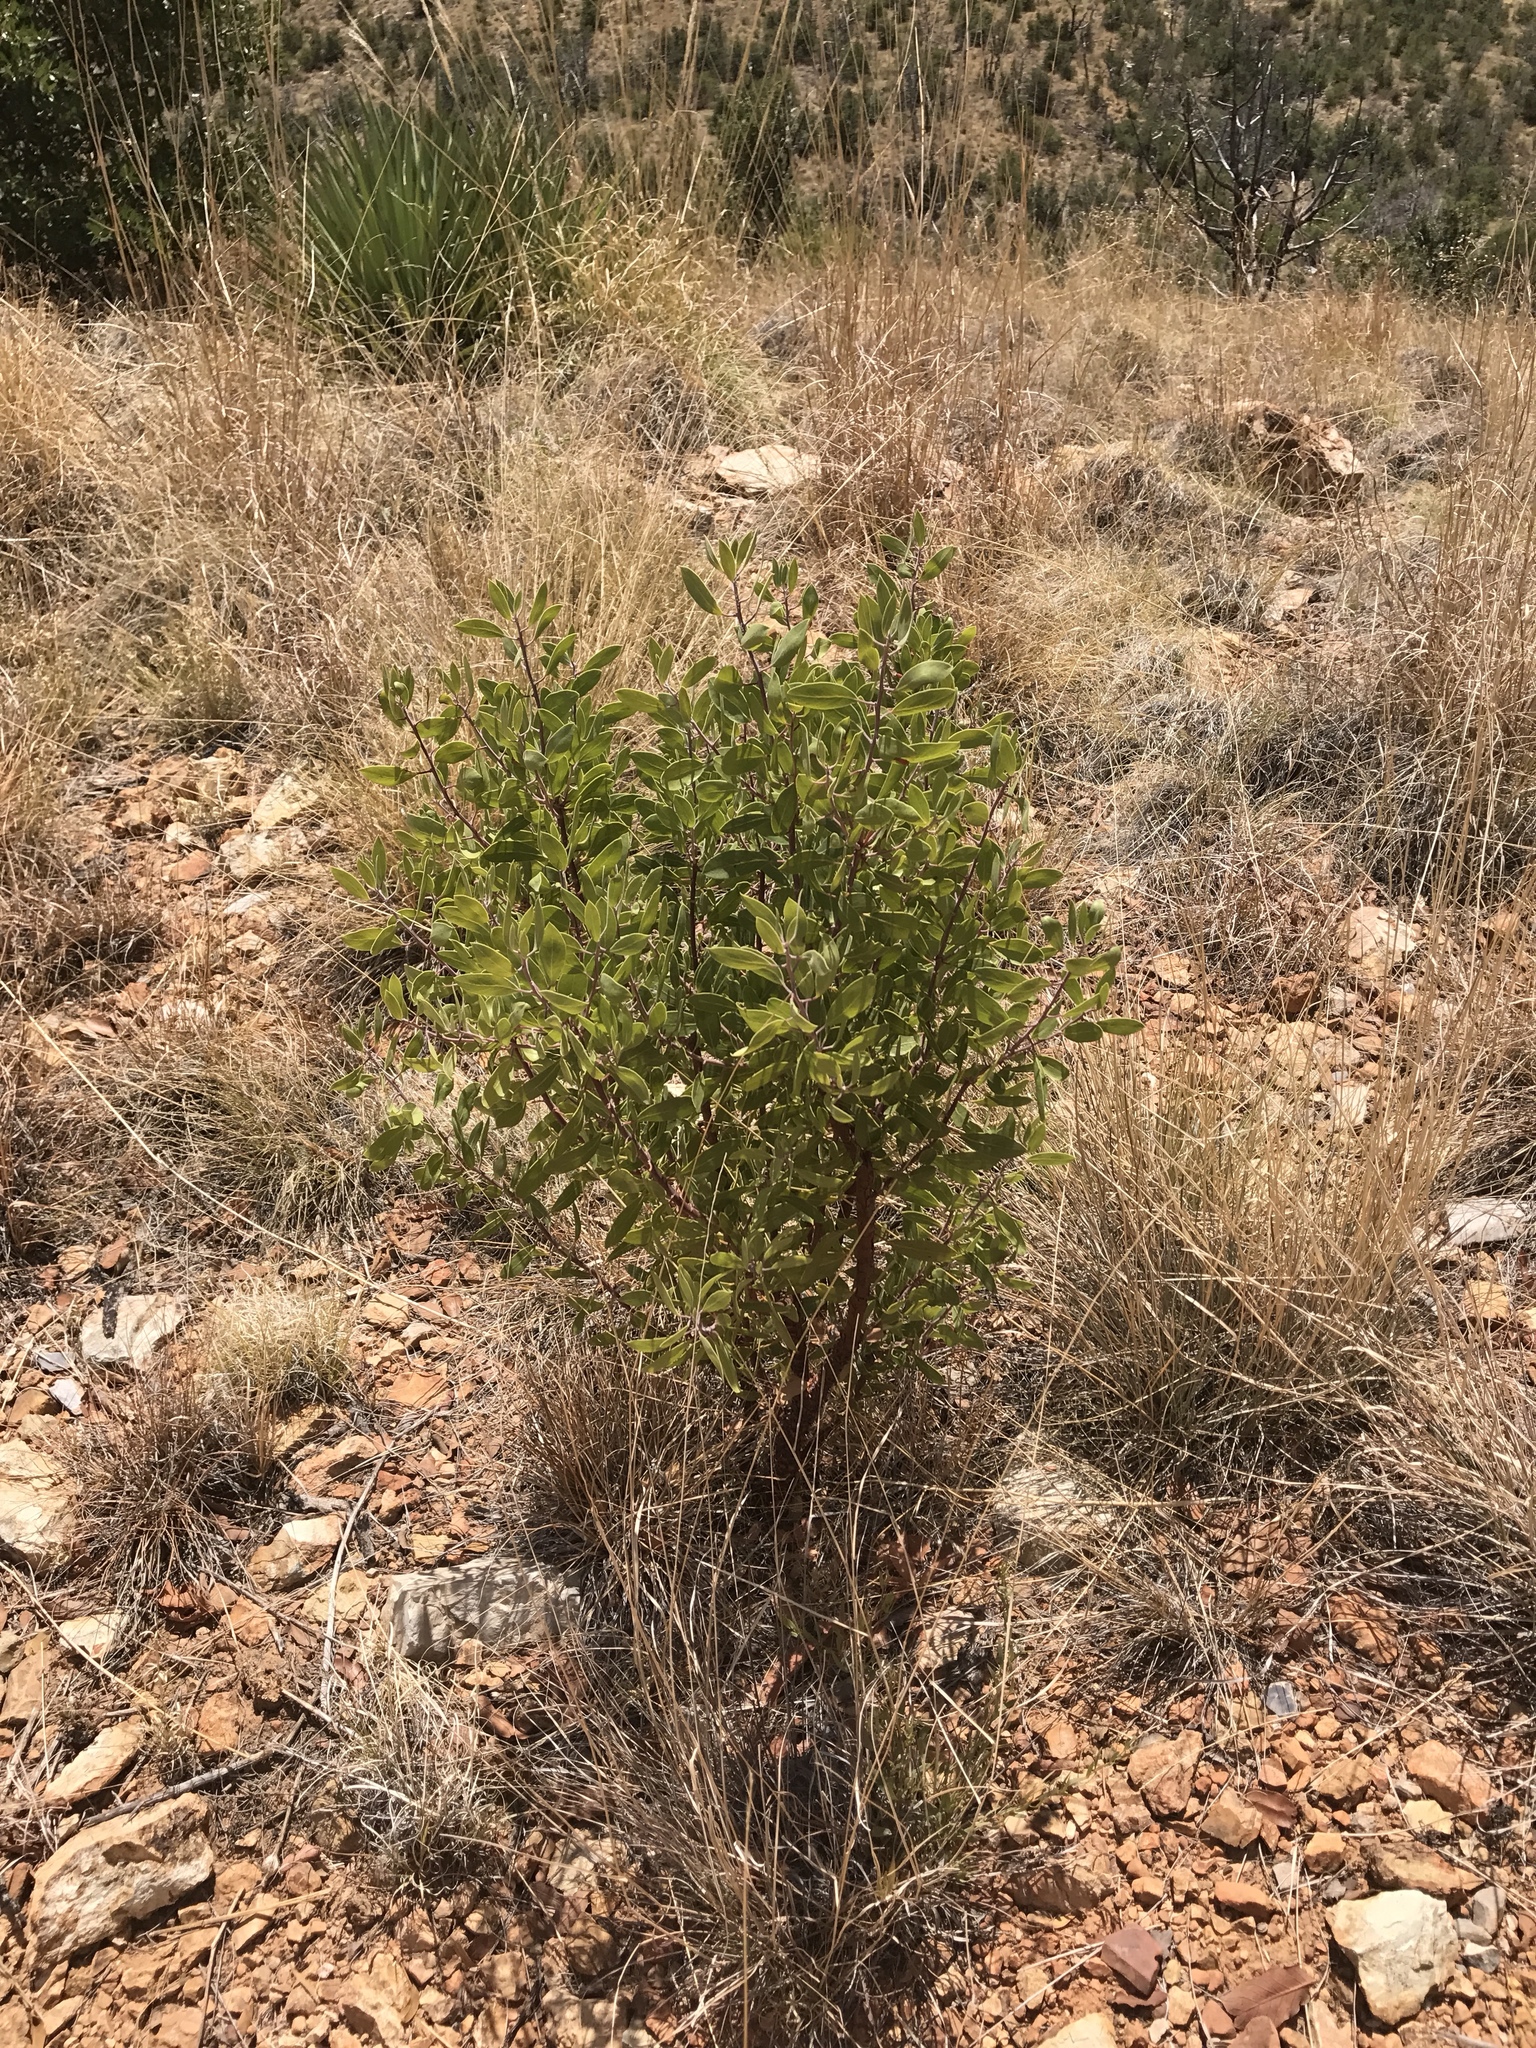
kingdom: Plantae
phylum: Tracheophyta
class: Magnoliopsida
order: Ericales
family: Ericaceae
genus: Arctostaphylos
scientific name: Arctostaphylos pungens
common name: Mexican manzanita
